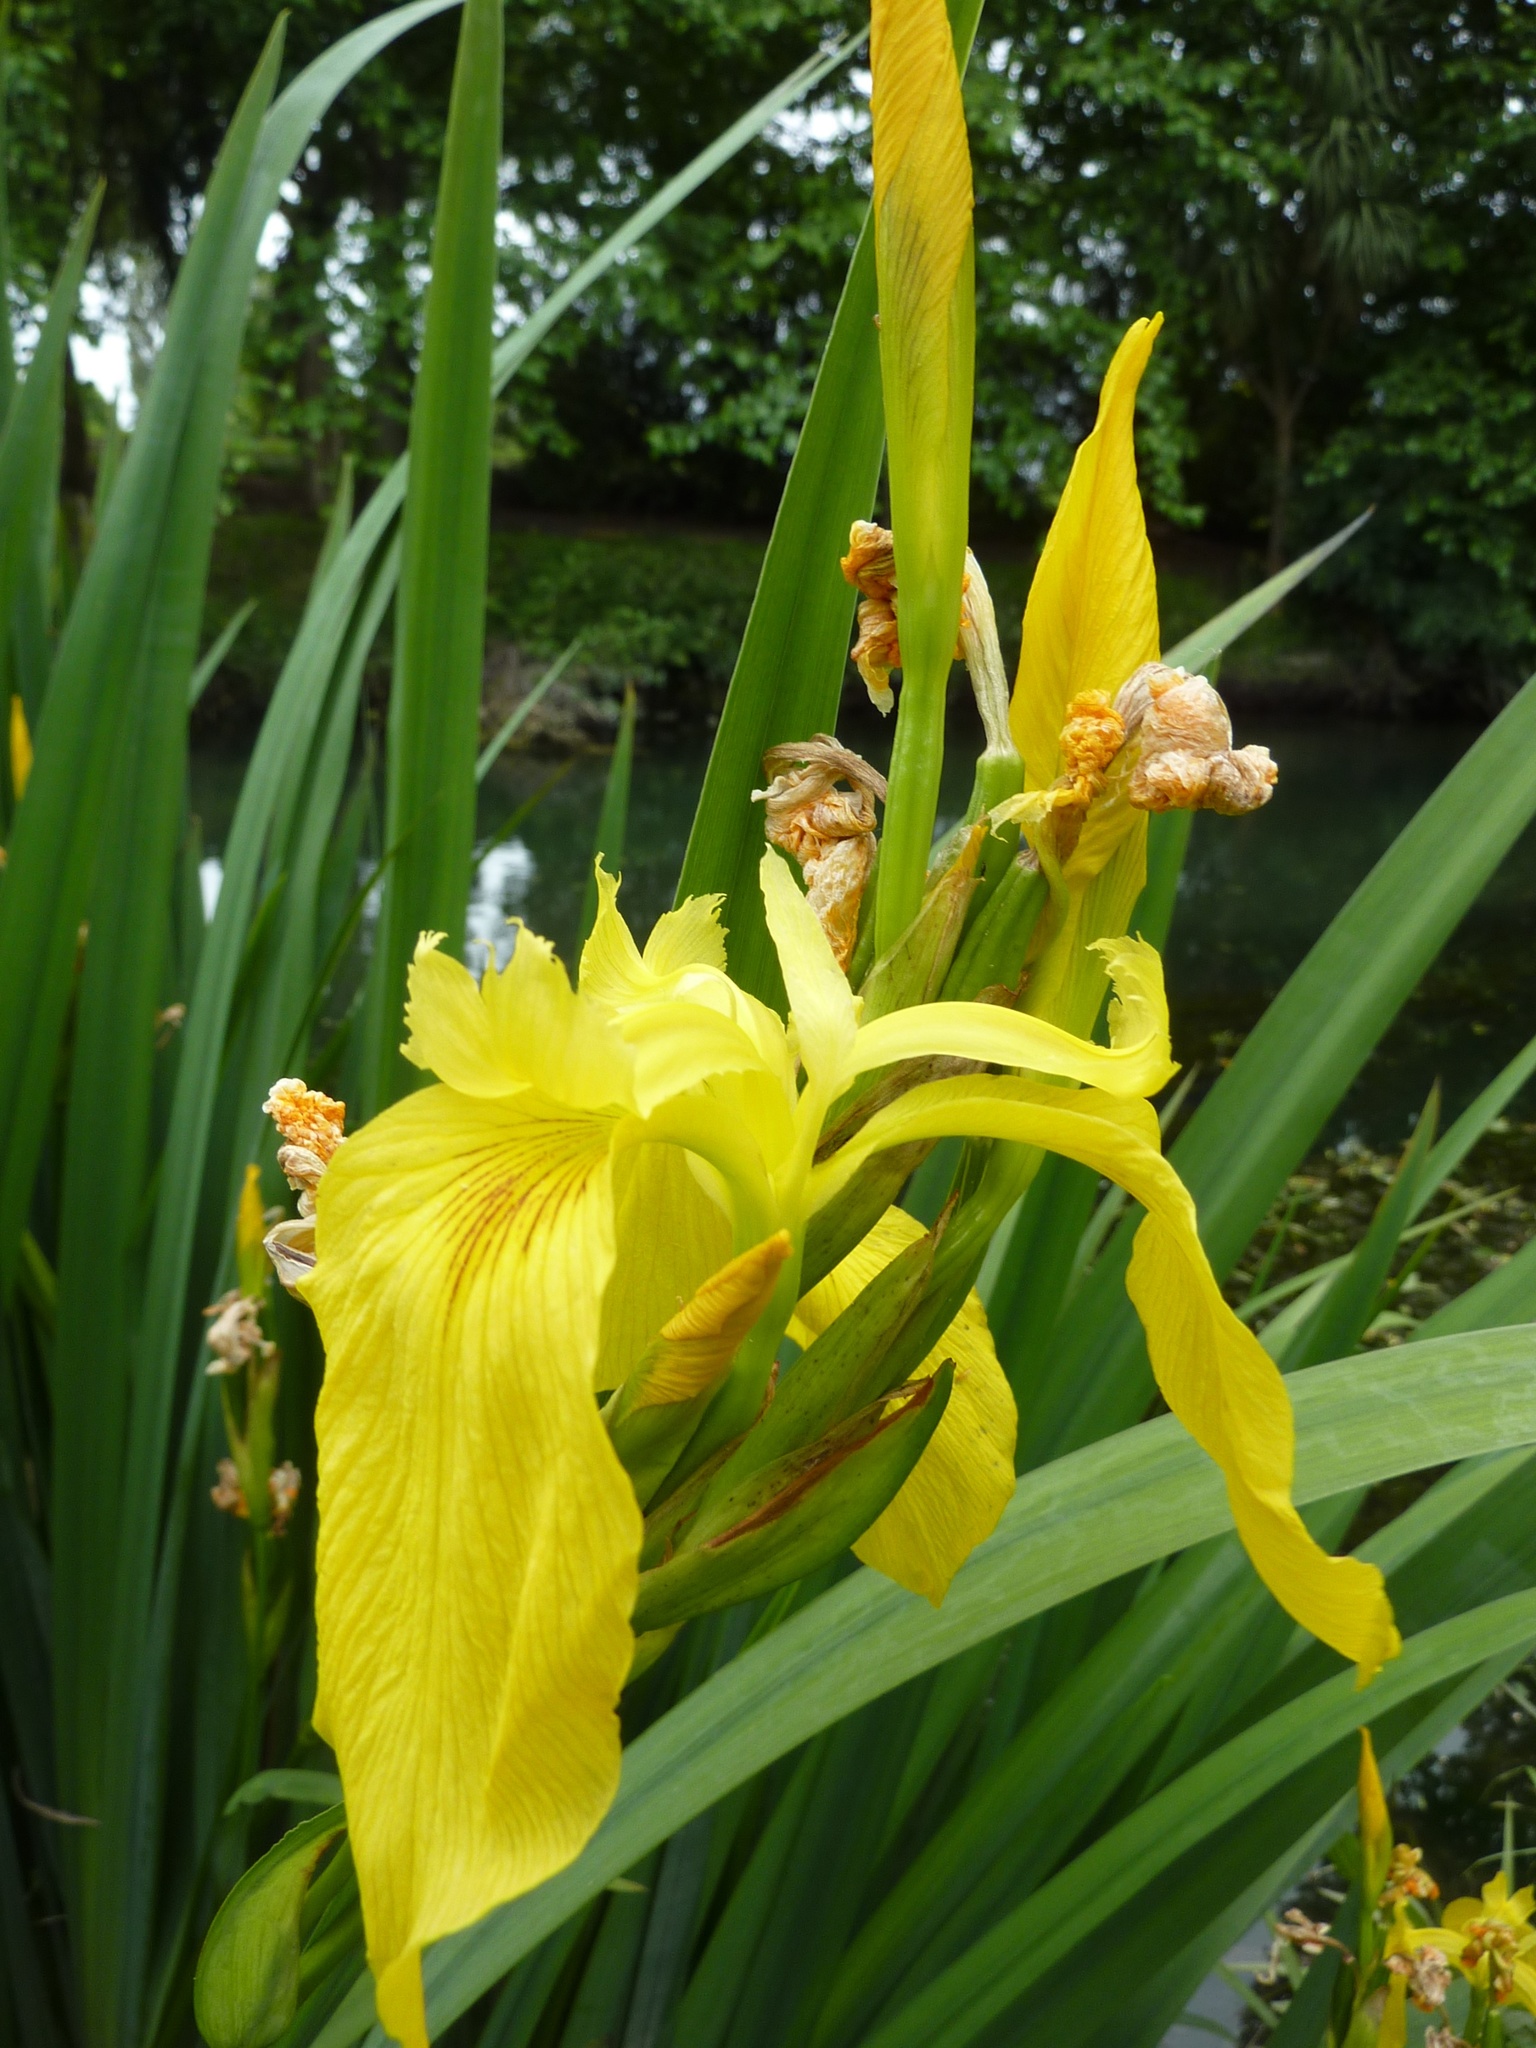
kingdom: Plantae
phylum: Tracheophyta
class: Liliopsida
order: Asparagales
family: Iridaceae
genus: Iris
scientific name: Iris pseudacorus
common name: Yellow flag
